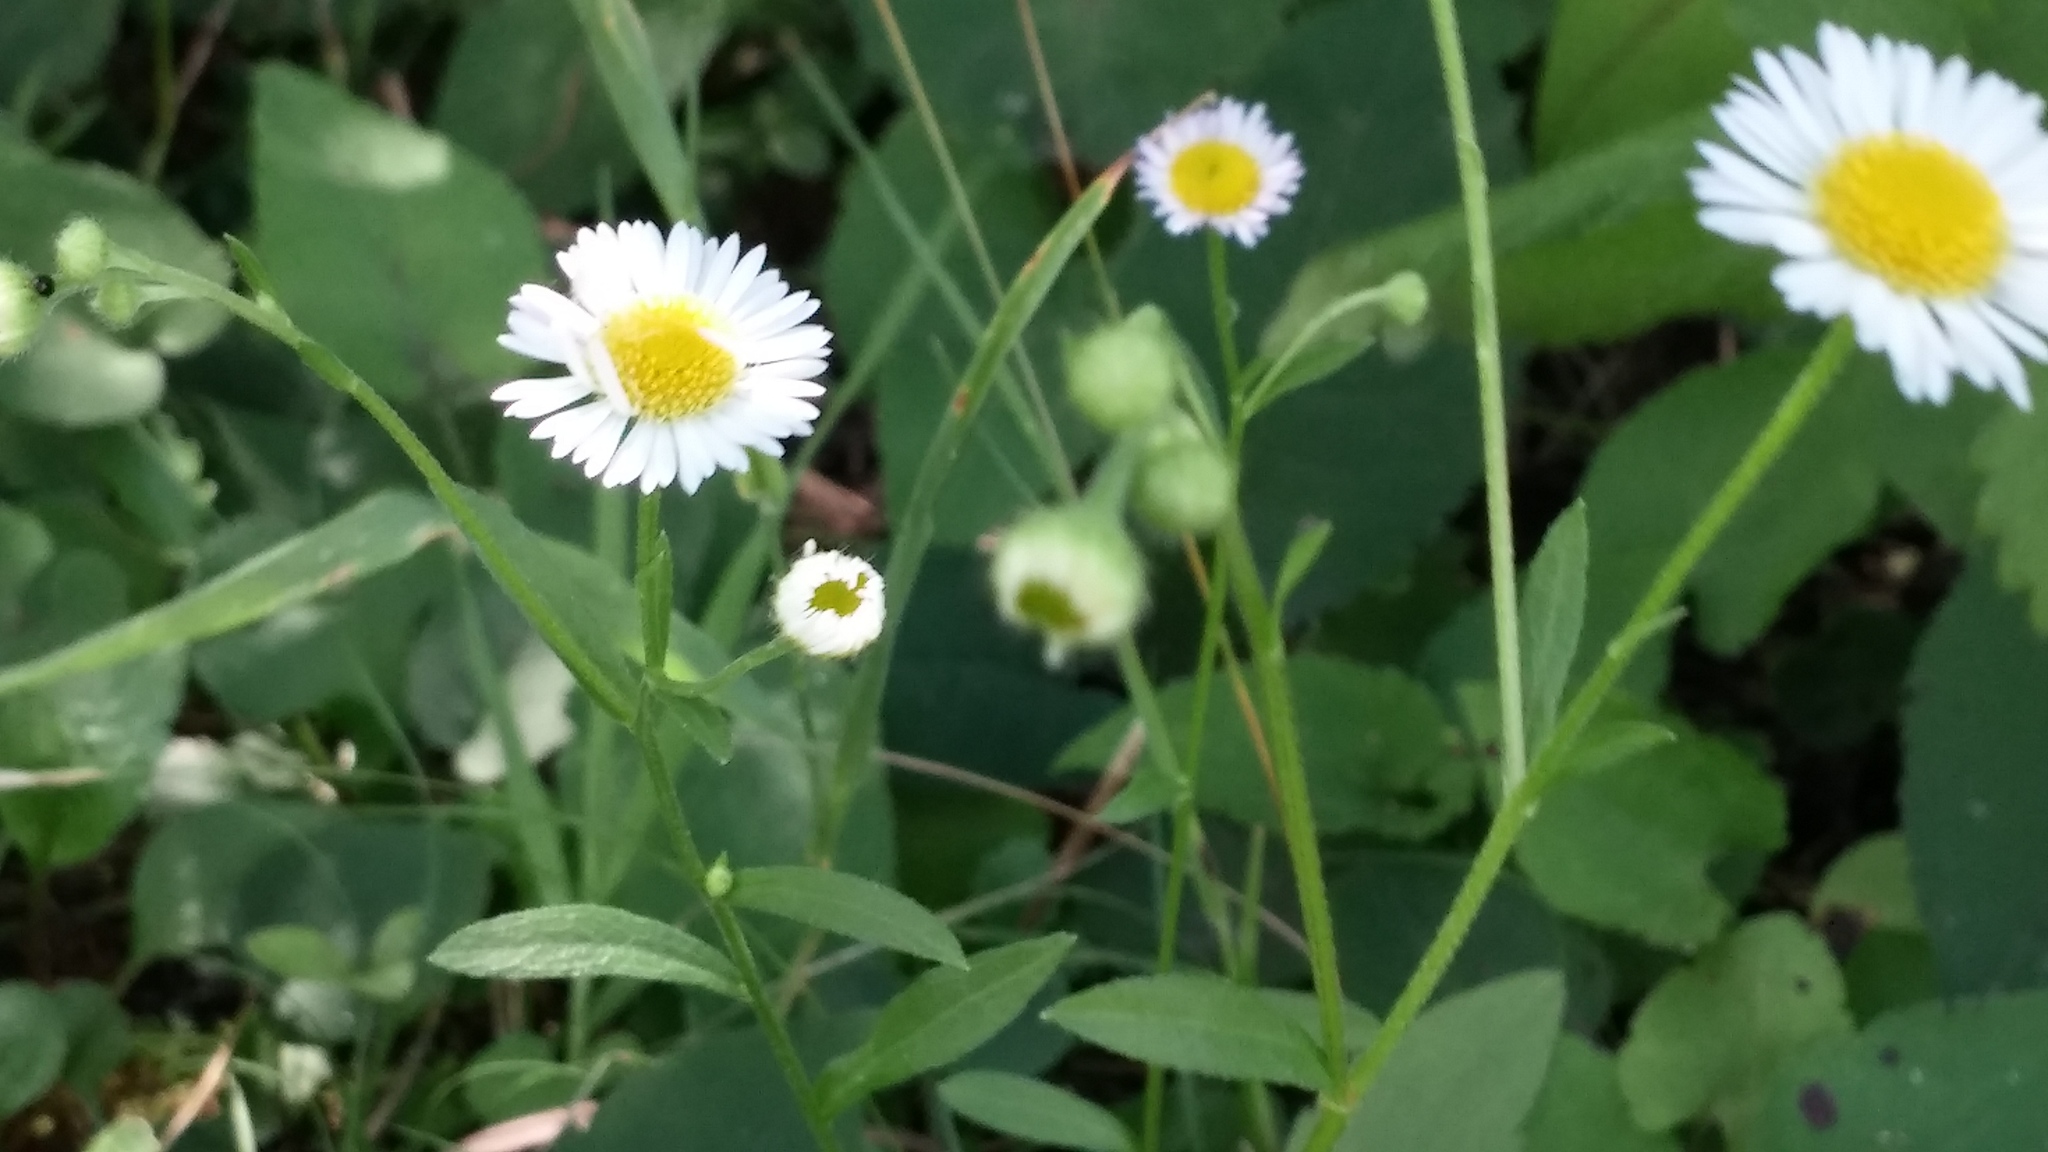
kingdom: Plantae
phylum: Tracheophyta
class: Magnoliopsida
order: Asterales
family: Asteraceae
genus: Erigeron
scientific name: Erigeron strigosus
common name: Common eastern fleabane
